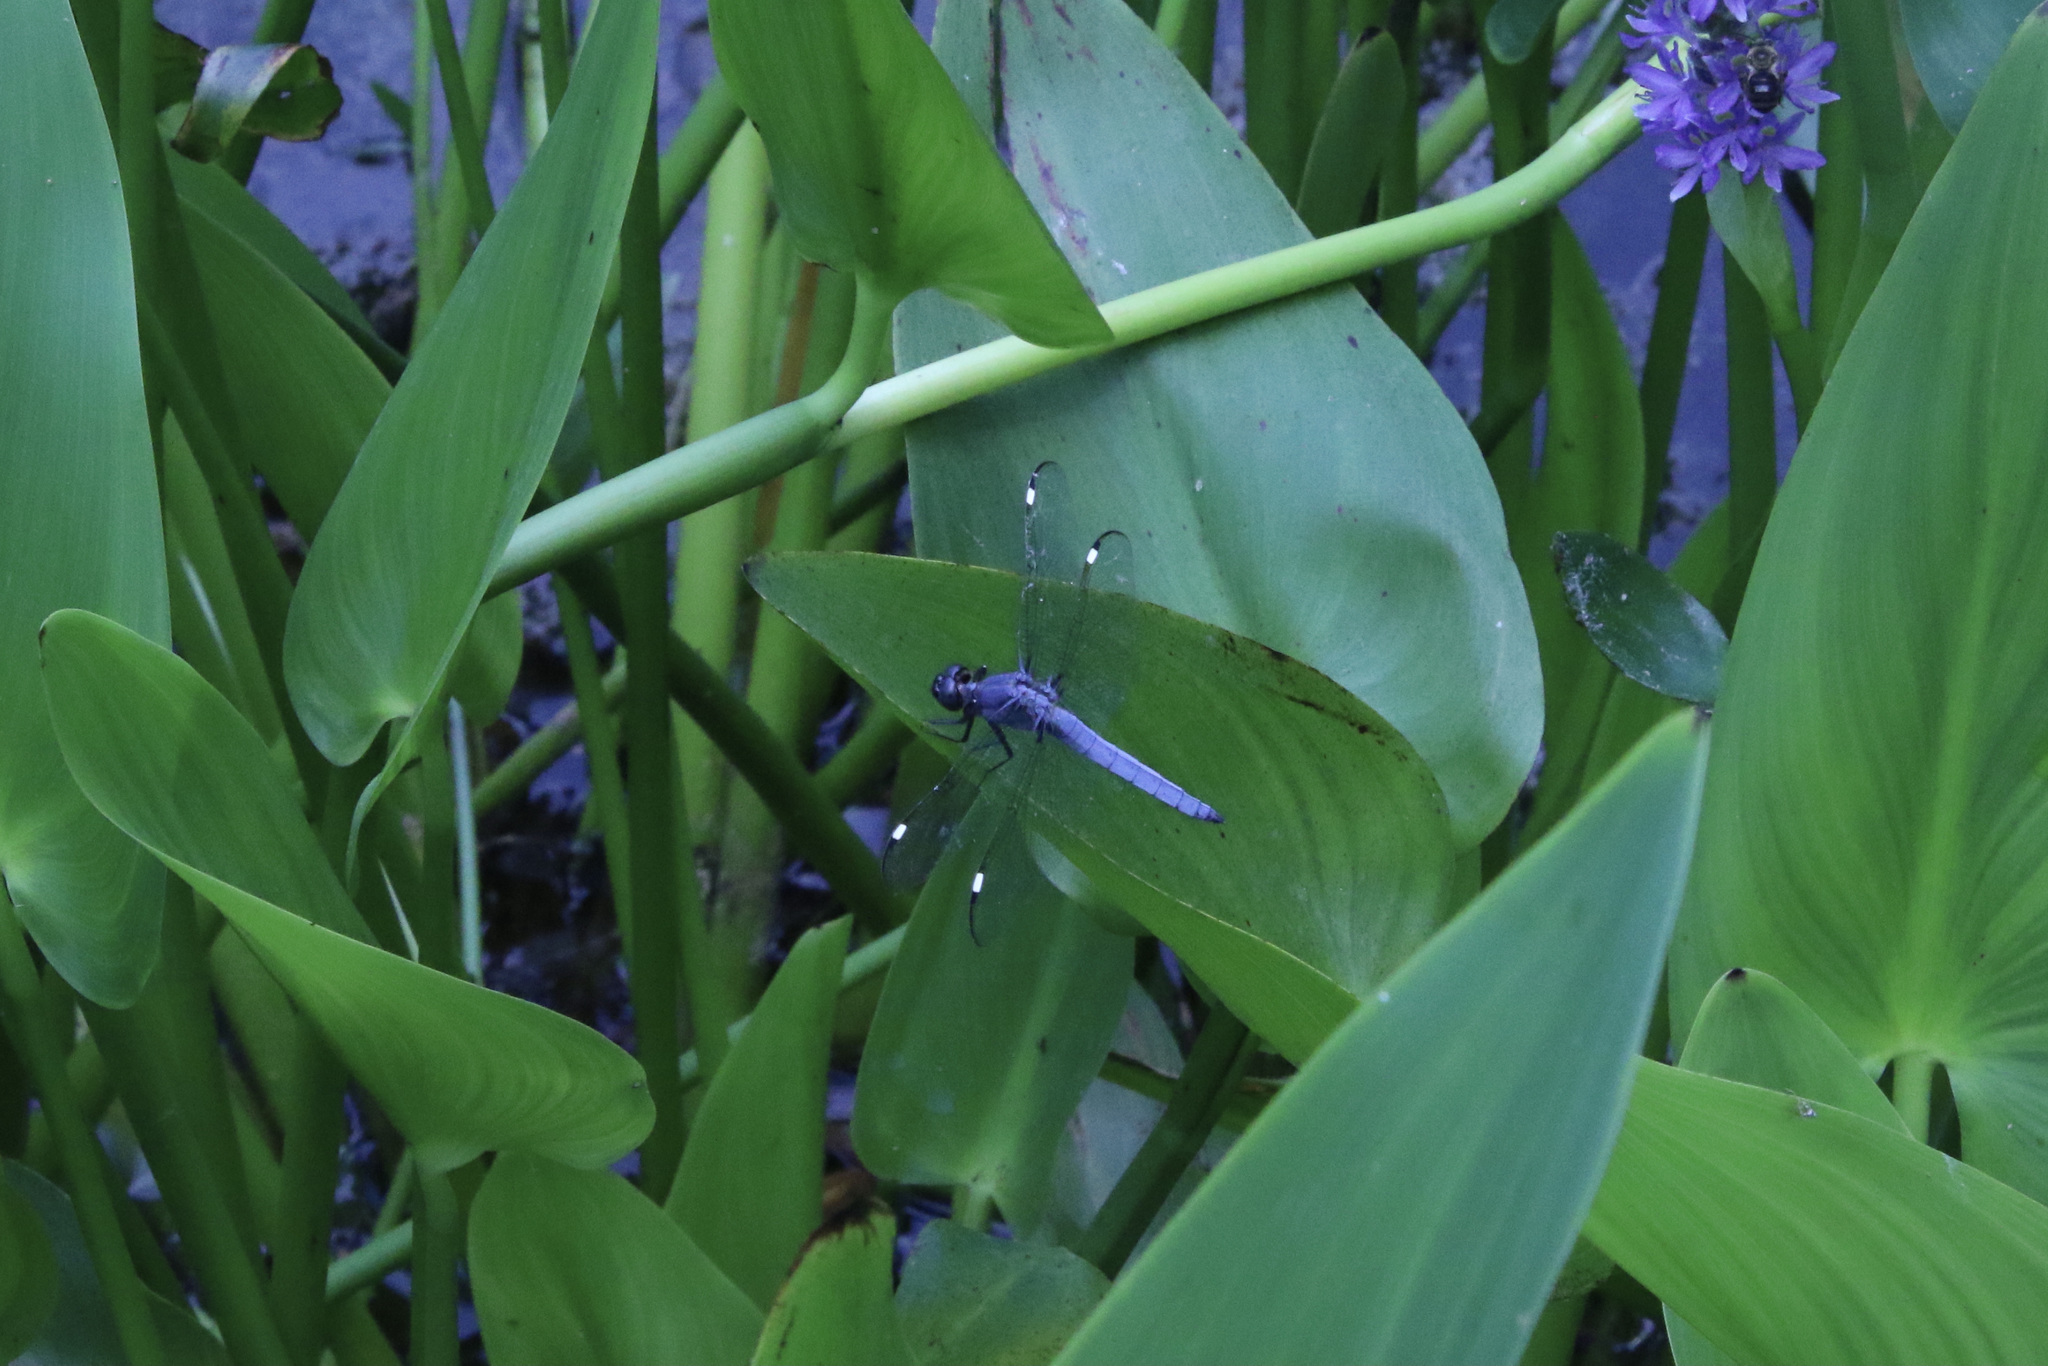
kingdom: Animalia
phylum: Arthropoda
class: Insecta
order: Odonata
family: Libellulidae
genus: Libellula
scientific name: Libellula cyanea
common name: Spangled skimmer
